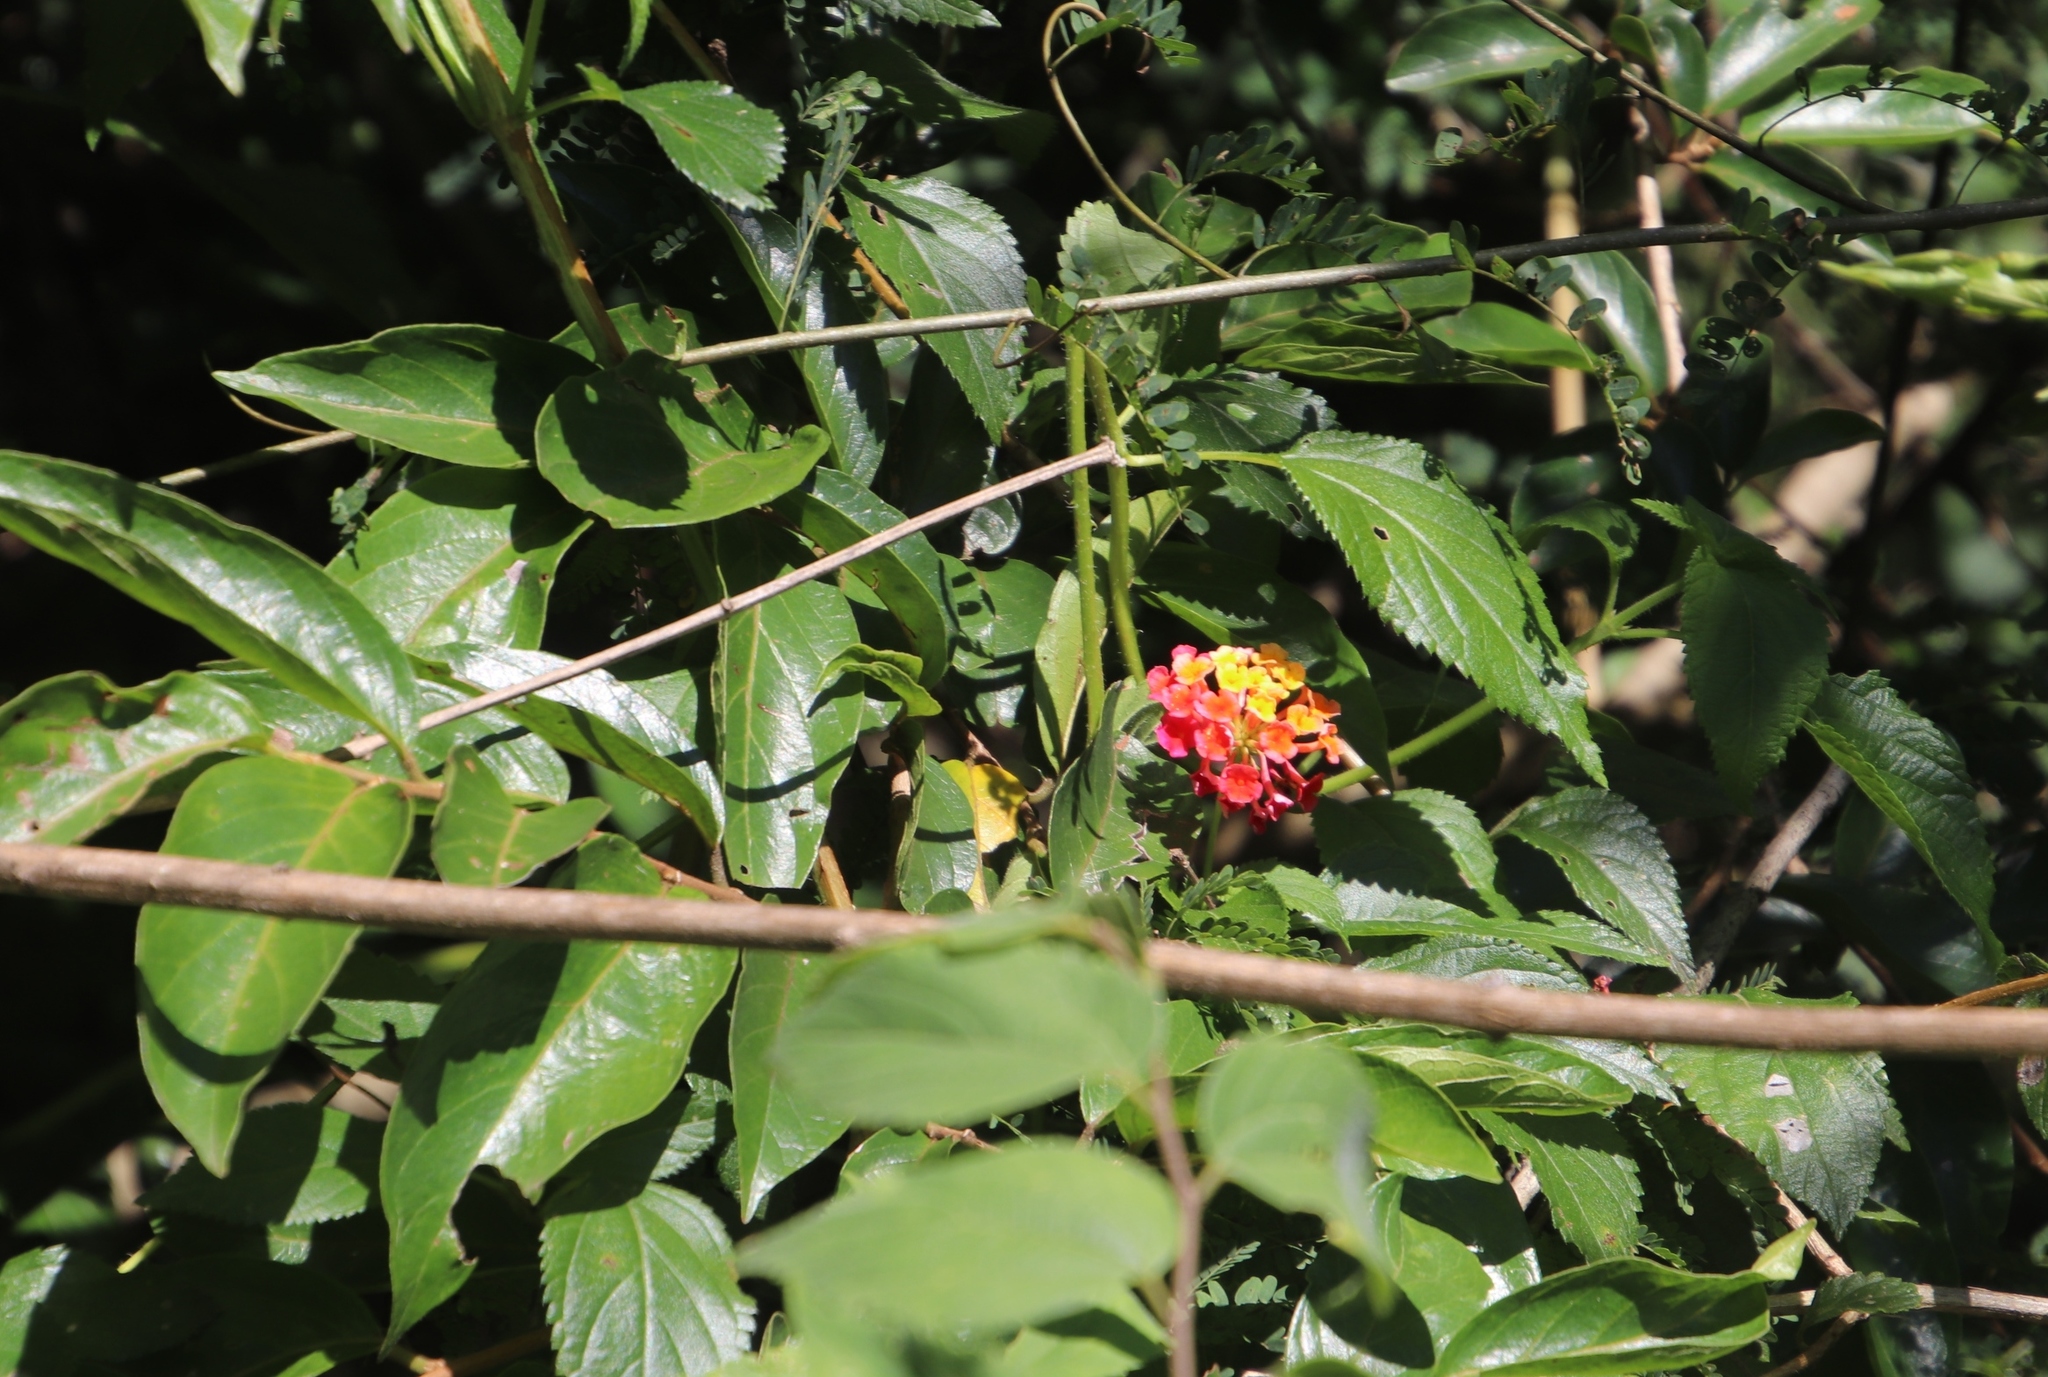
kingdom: Plantae
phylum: Tracheophyta
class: Magnoliopsida
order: Lamiales
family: Verbenaceae
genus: Lantana
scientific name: Lantana camara
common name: Lantana
